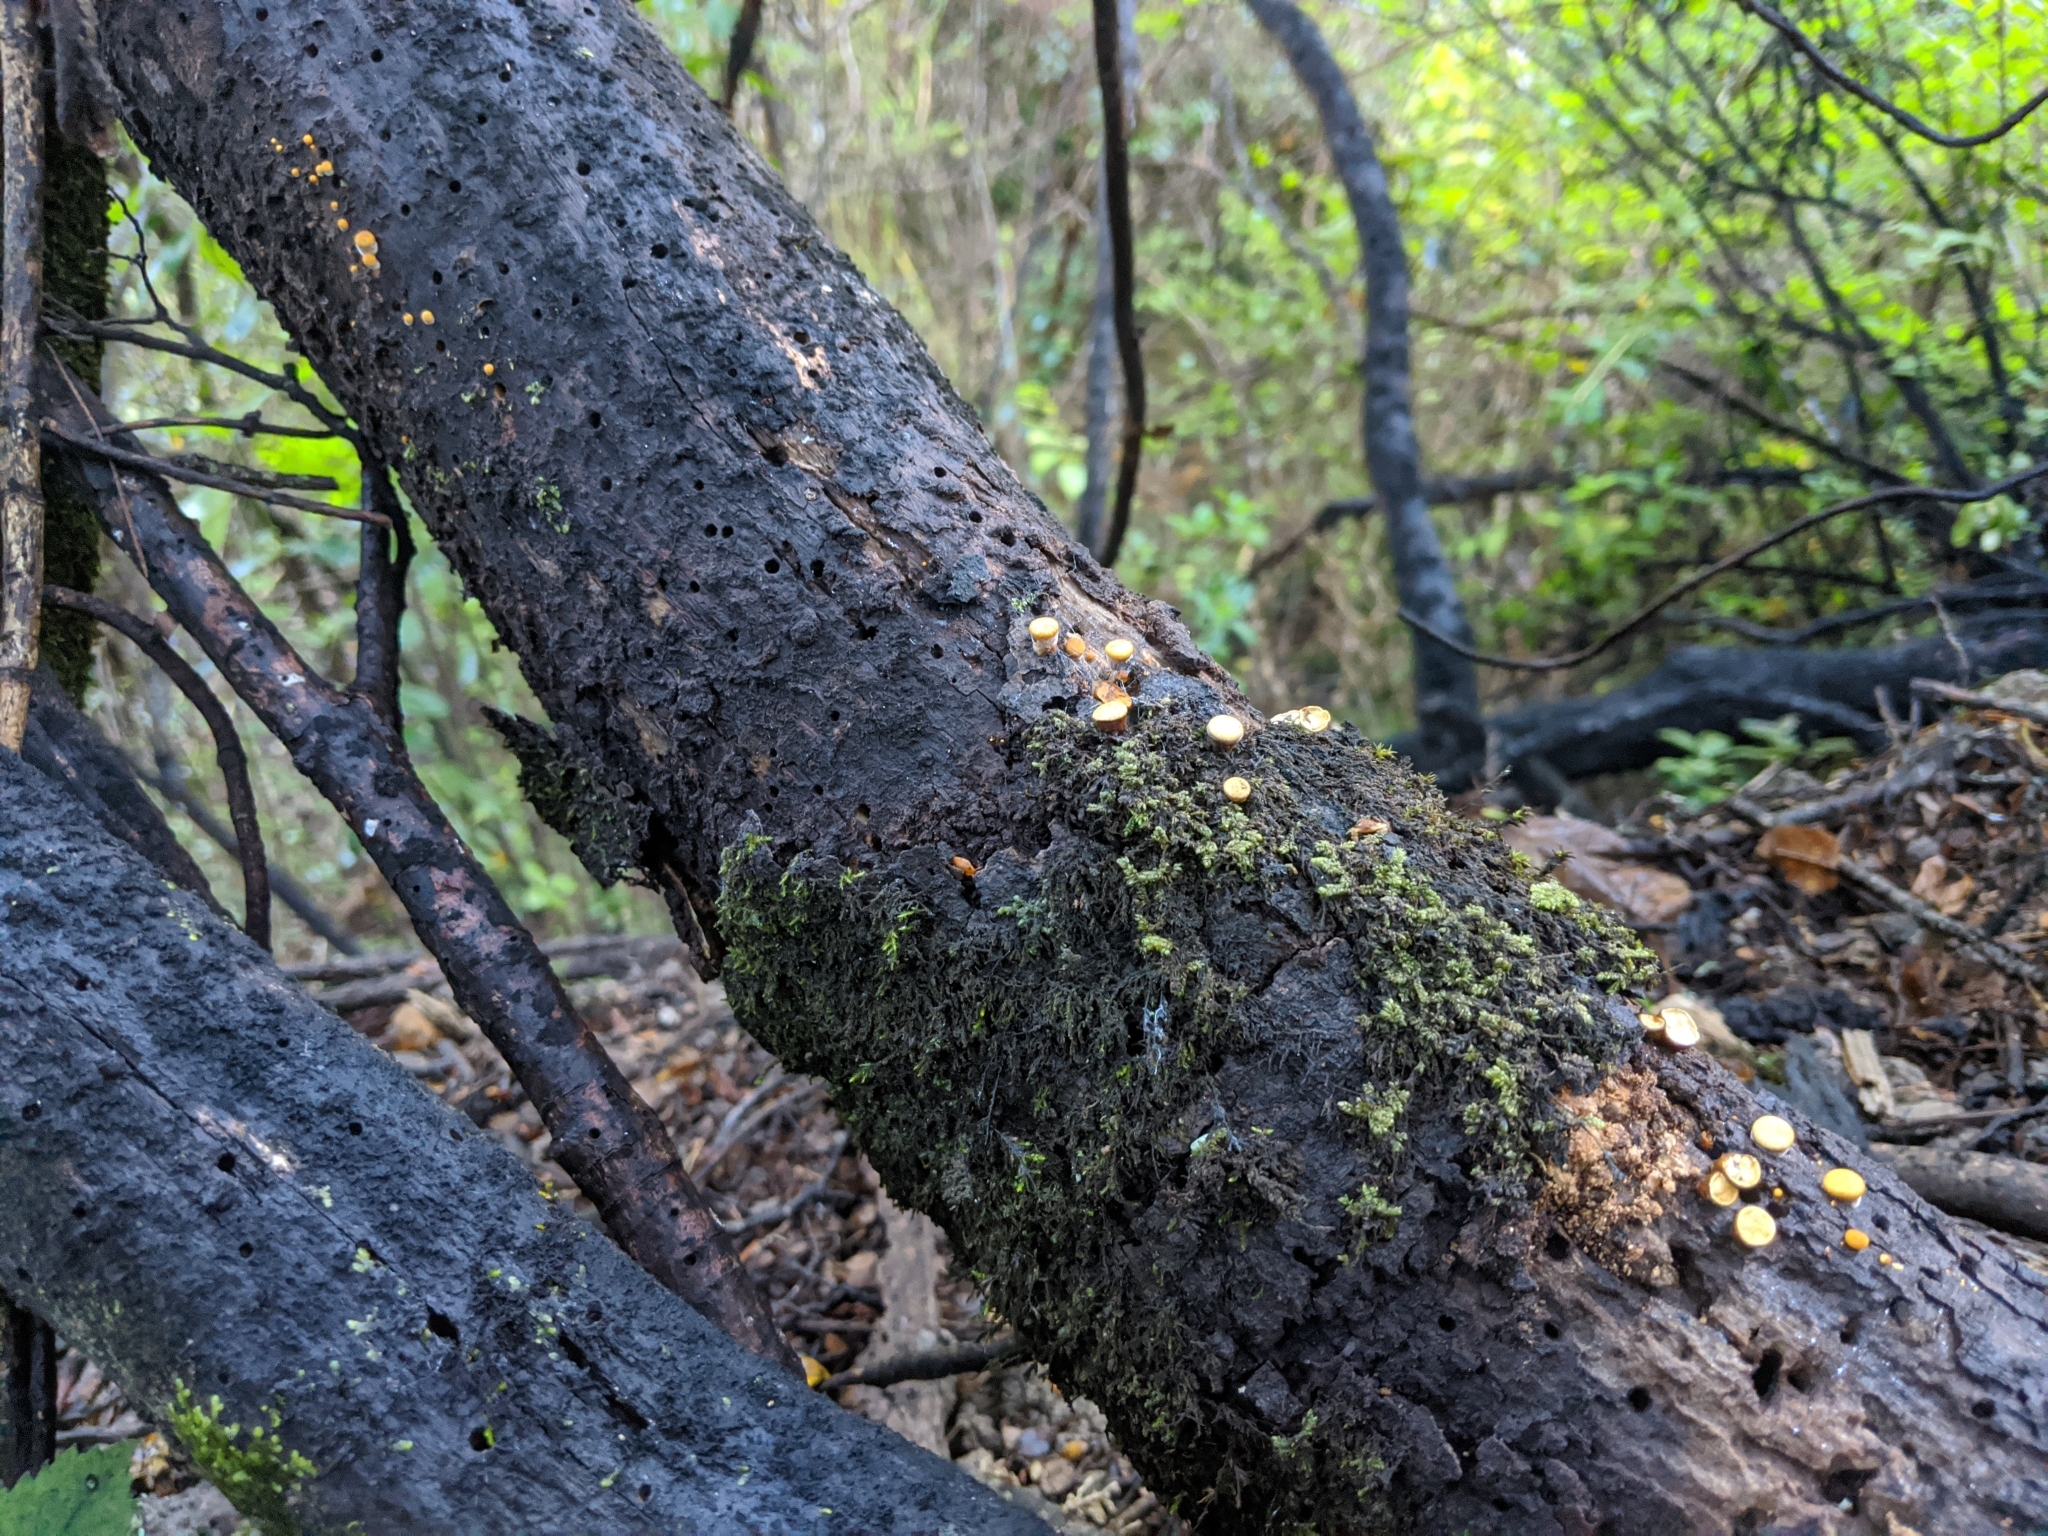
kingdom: Fungi
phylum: Basidiomycota
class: Agaricomycetes
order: Agaricales
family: Nidulariaceae
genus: Crucibulum
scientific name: Crucibulum simile
